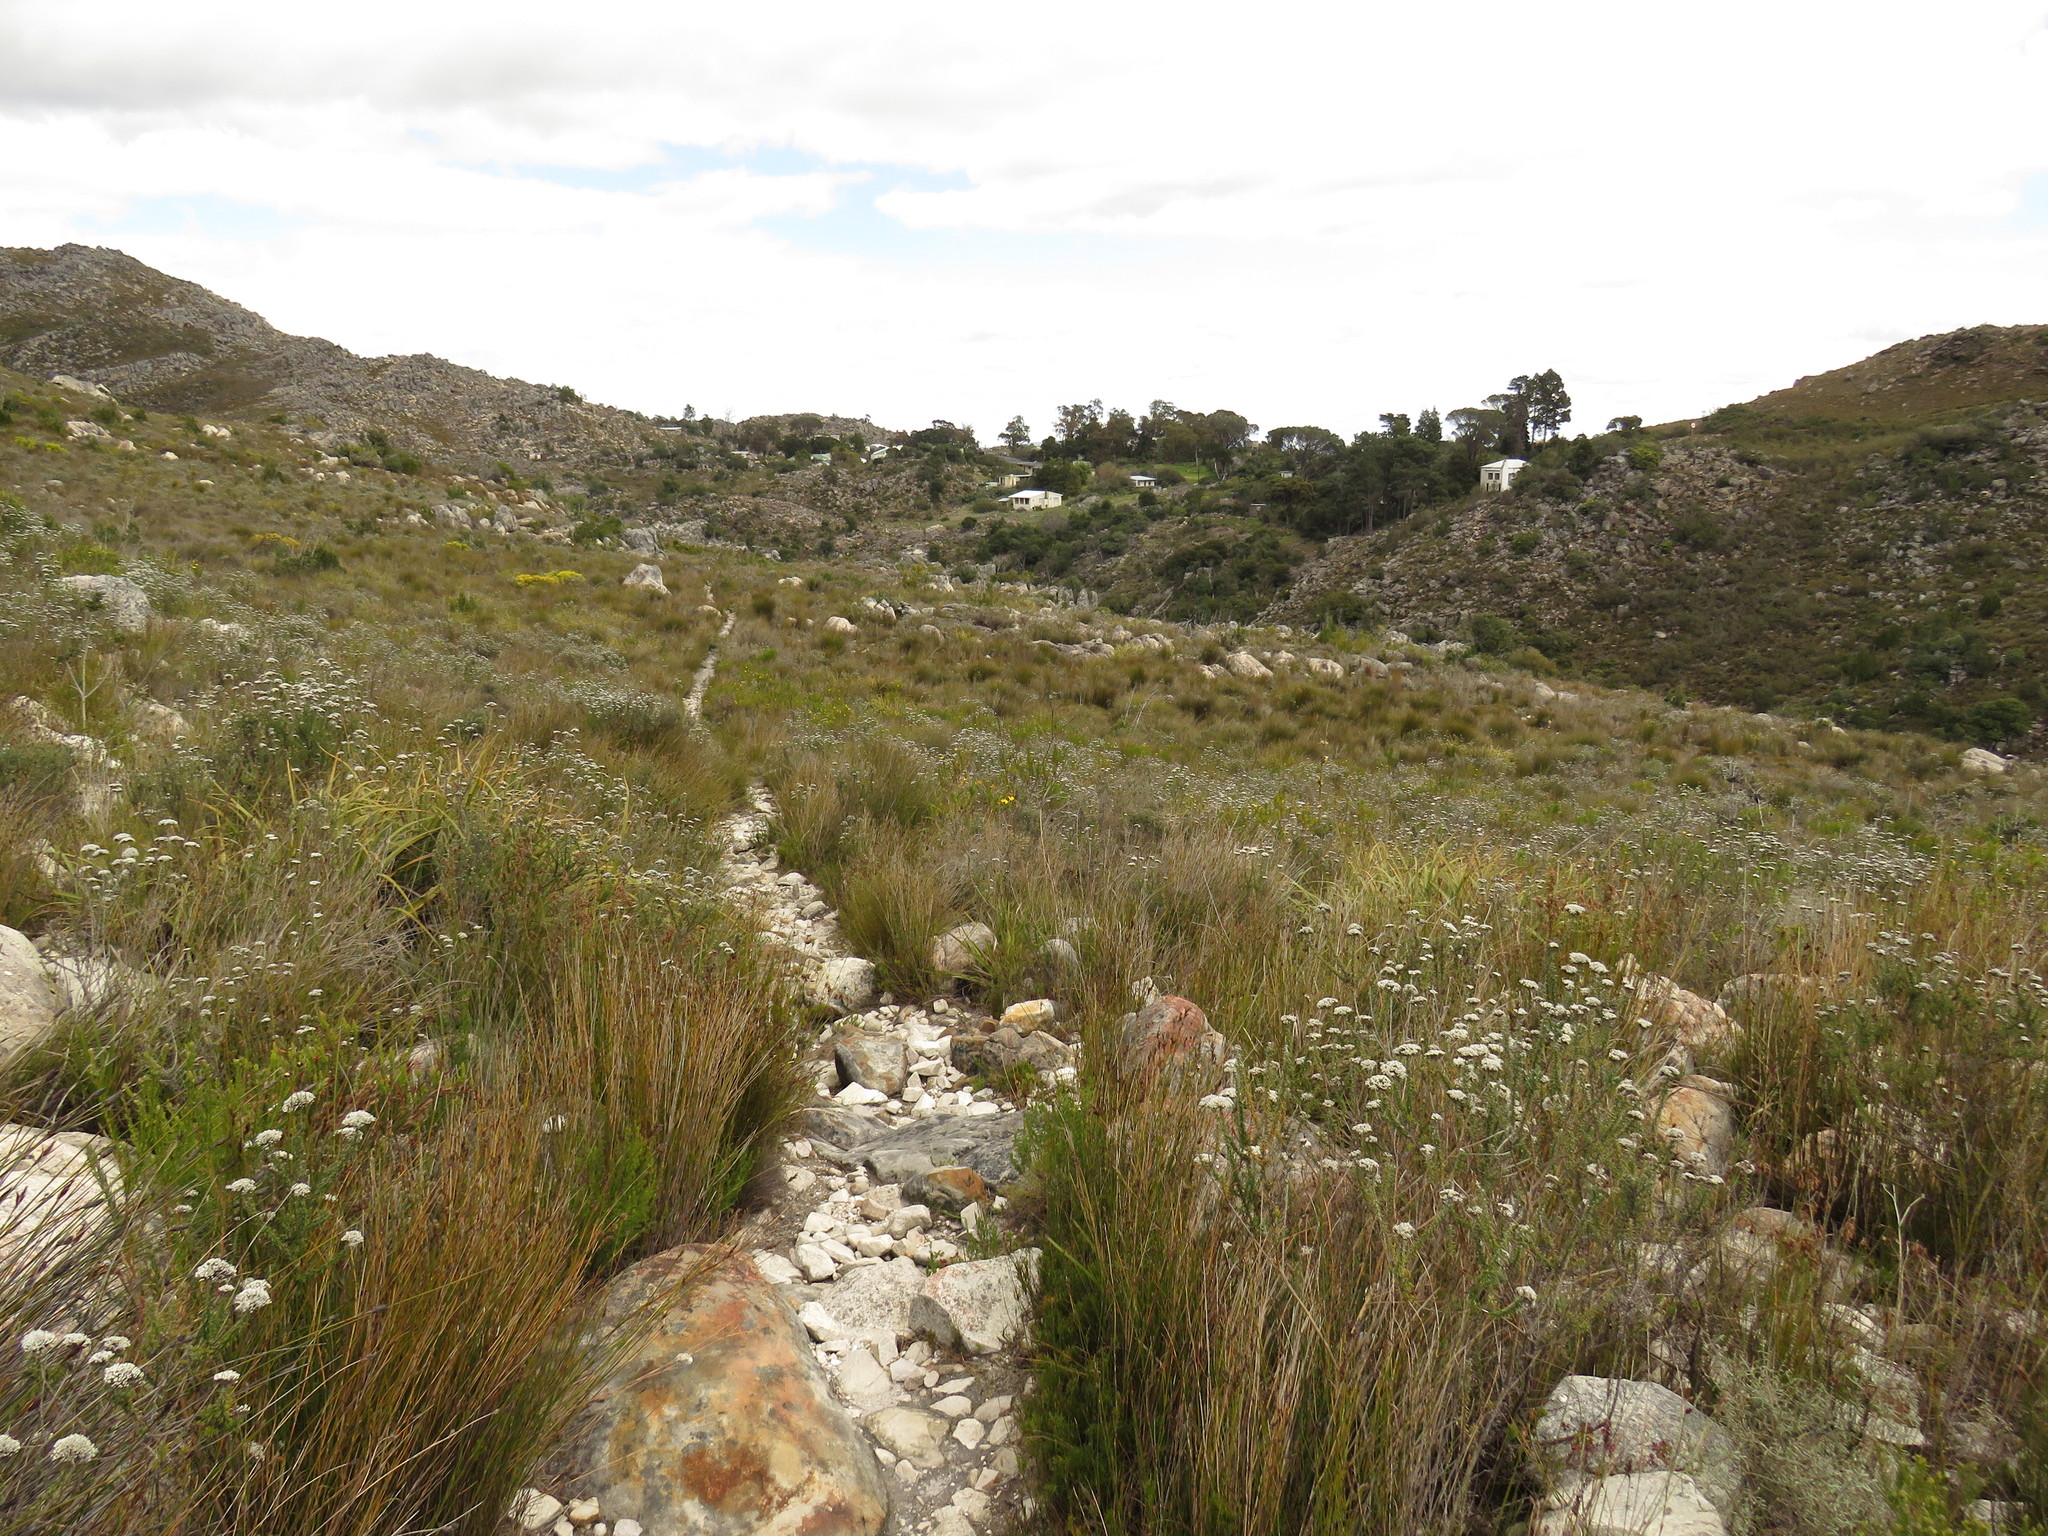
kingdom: Plantae
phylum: Tracheophyta
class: Magnoliopsida
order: Asterales
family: Asteraceae
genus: Metalasia
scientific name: Metalasia densa
